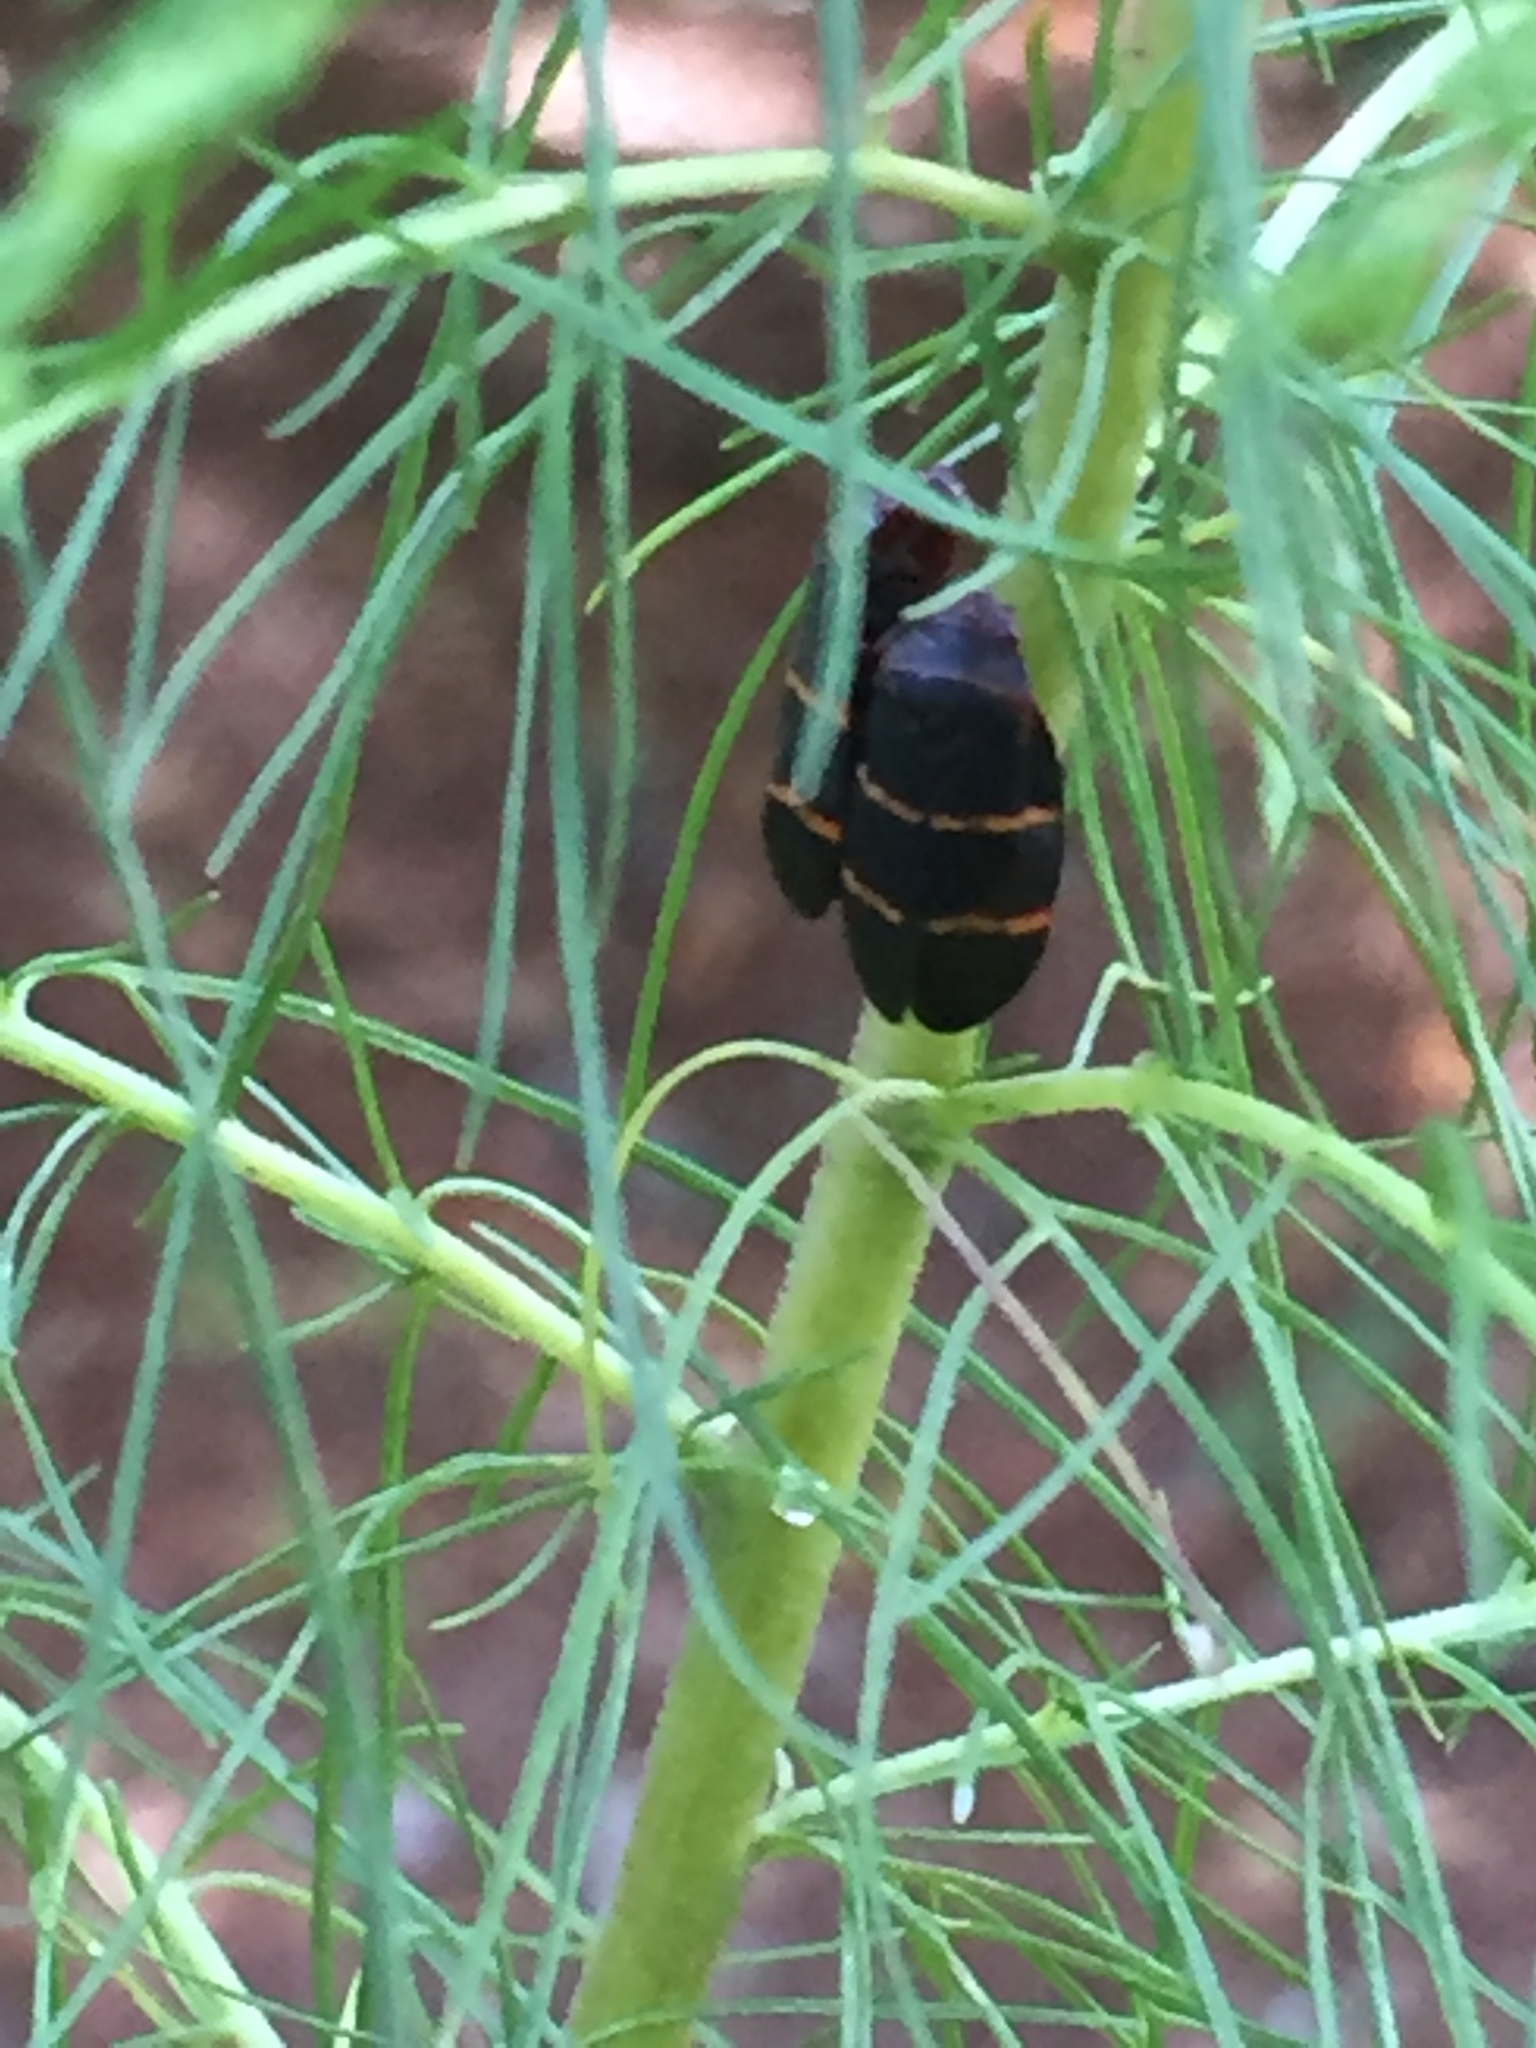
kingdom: Animalia
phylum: Arthropoda
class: Insecta
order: Hemiptera
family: Cercopidae
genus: Prosapia
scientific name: Prosapia bicincta
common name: Twolined spittlebug
